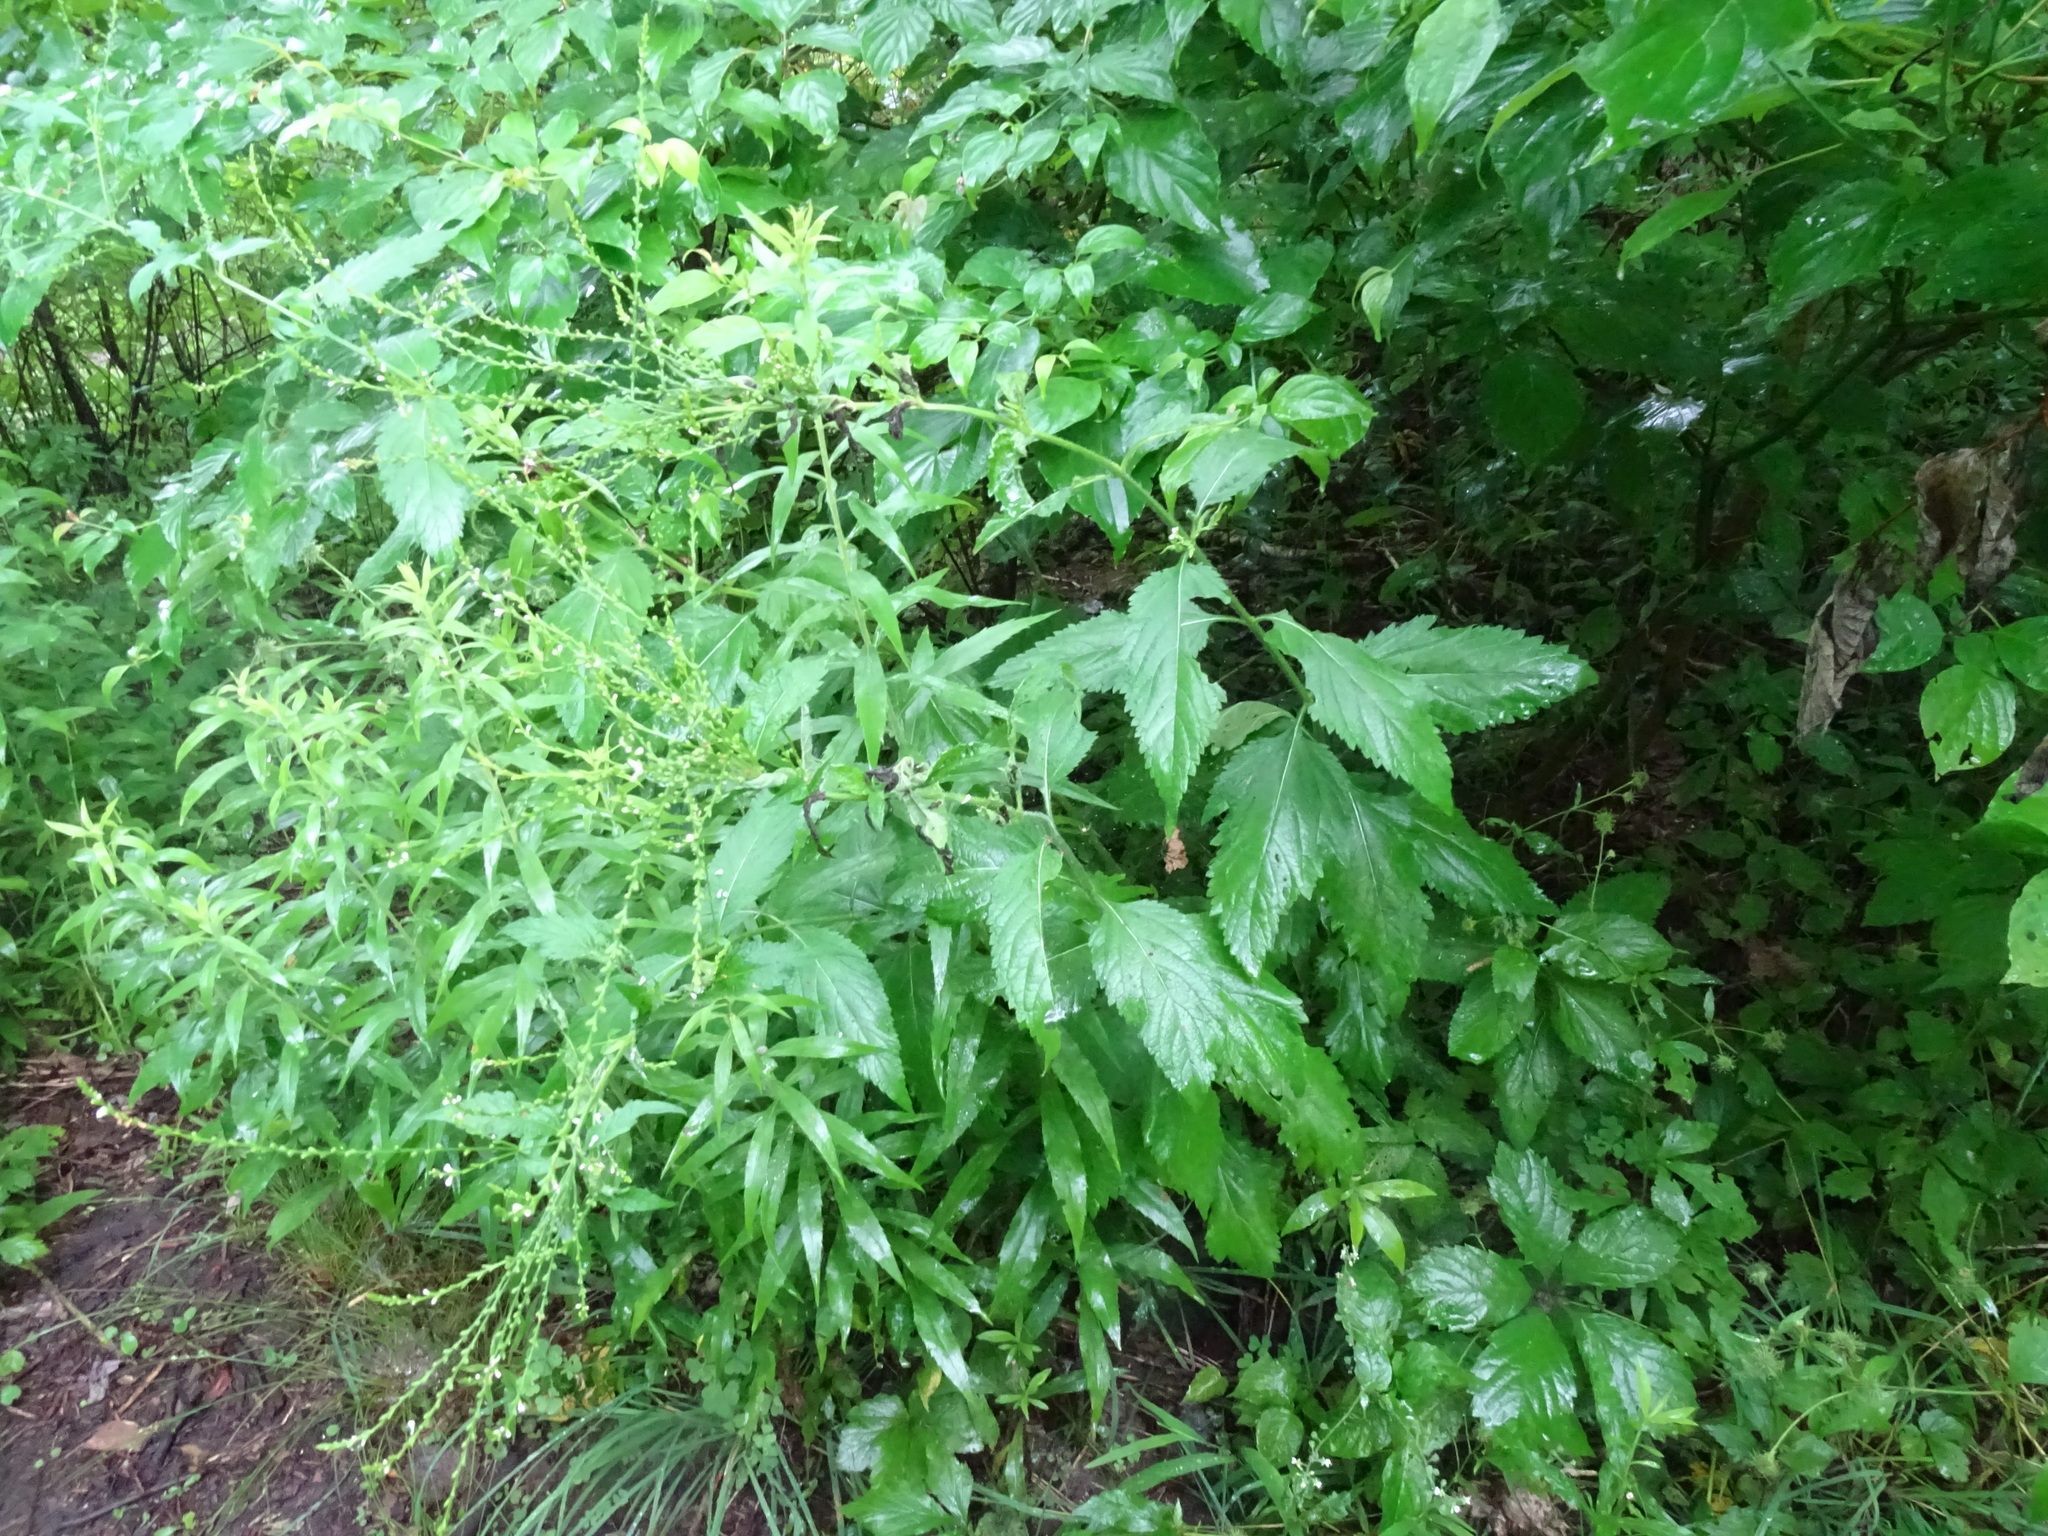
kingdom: Plantae
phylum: Tracheophyta
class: Magnoliopsida
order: Lamiales
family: Verbenaceae
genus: Verbena
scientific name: Verbena urticifolia
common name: Nettle-leaved vervain
